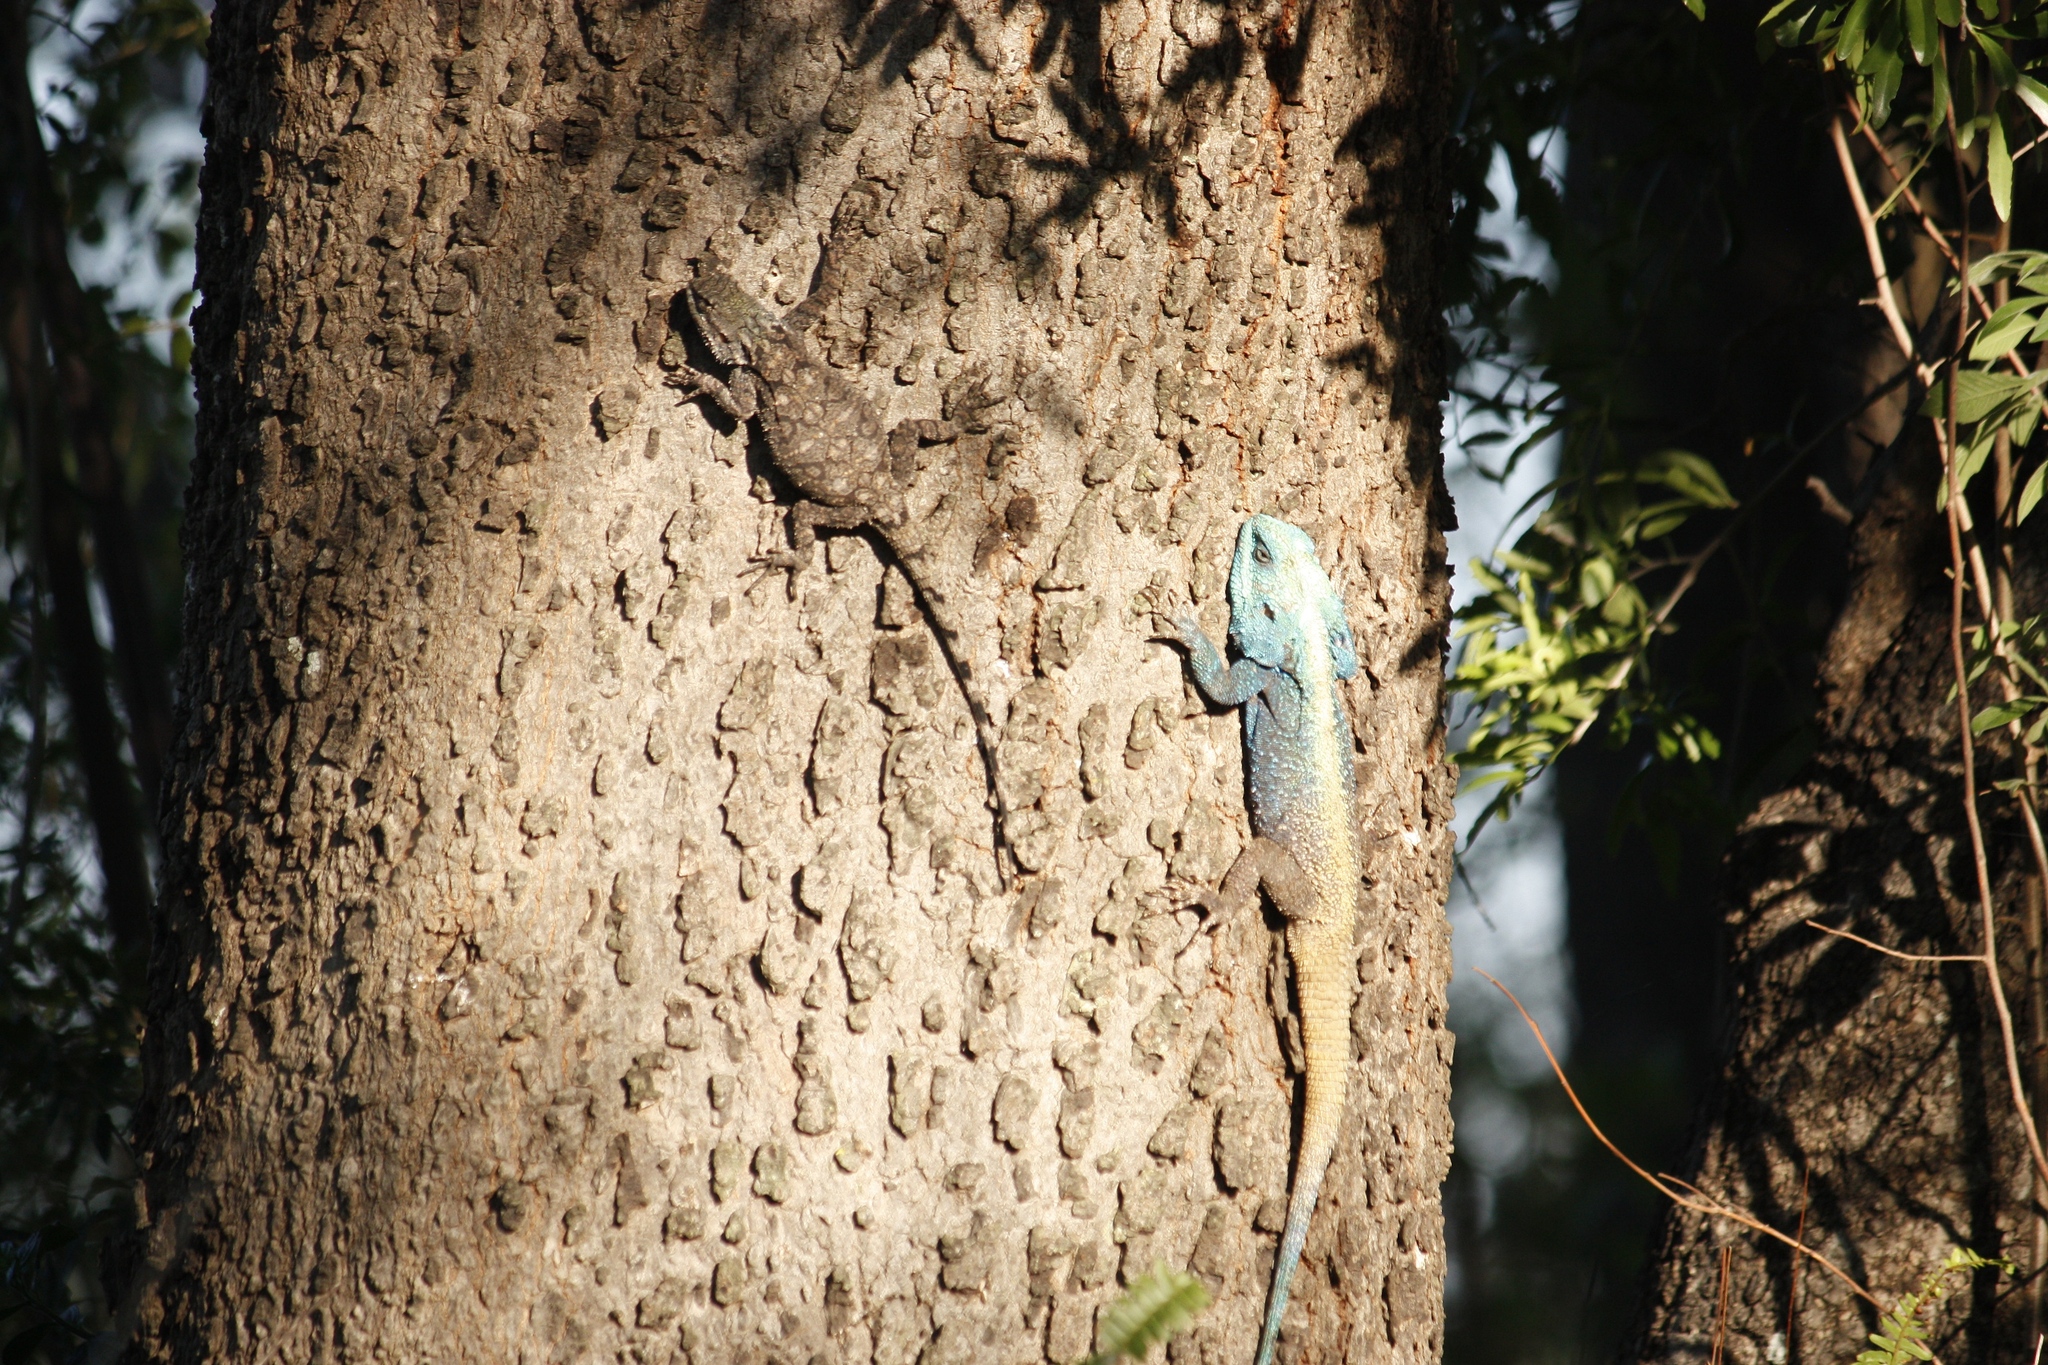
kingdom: Animalia
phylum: Chordata
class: Squamata
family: Agamidae
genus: Acanthocercus
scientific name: Acanthocercus atricollis
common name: Southern tree agama
